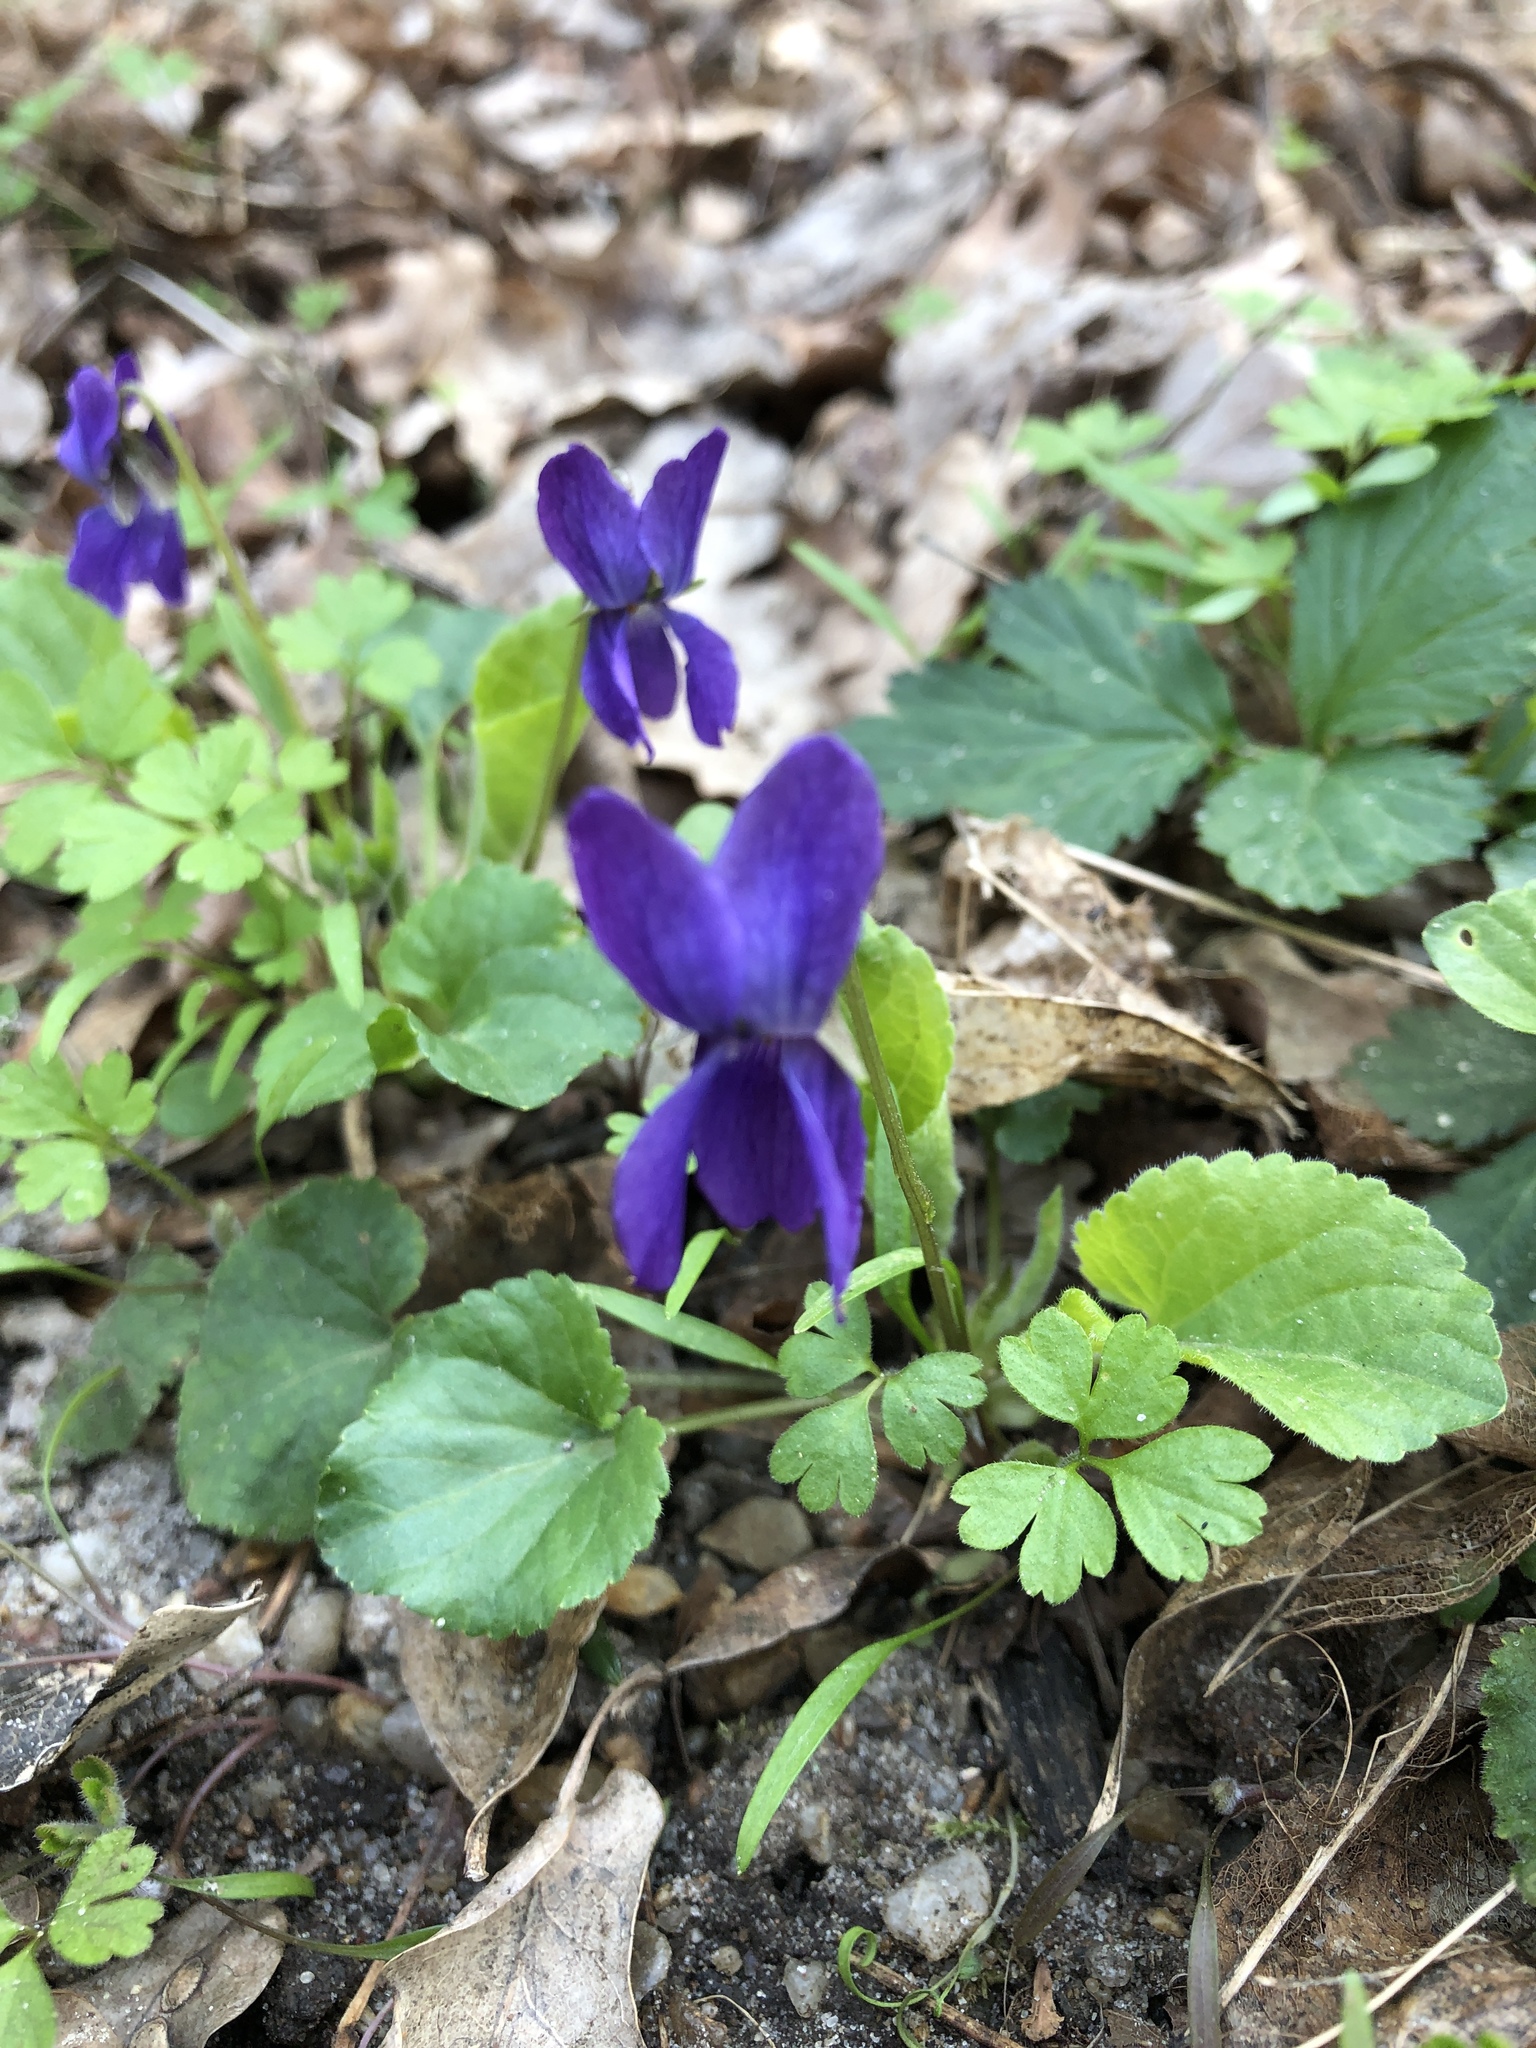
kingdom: Plantae
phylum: Tracheophyta
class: Magnoliopsida
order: Malpighiales
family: Violaceae
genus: Viola
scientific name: Viola odorata
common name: Sweet violet
